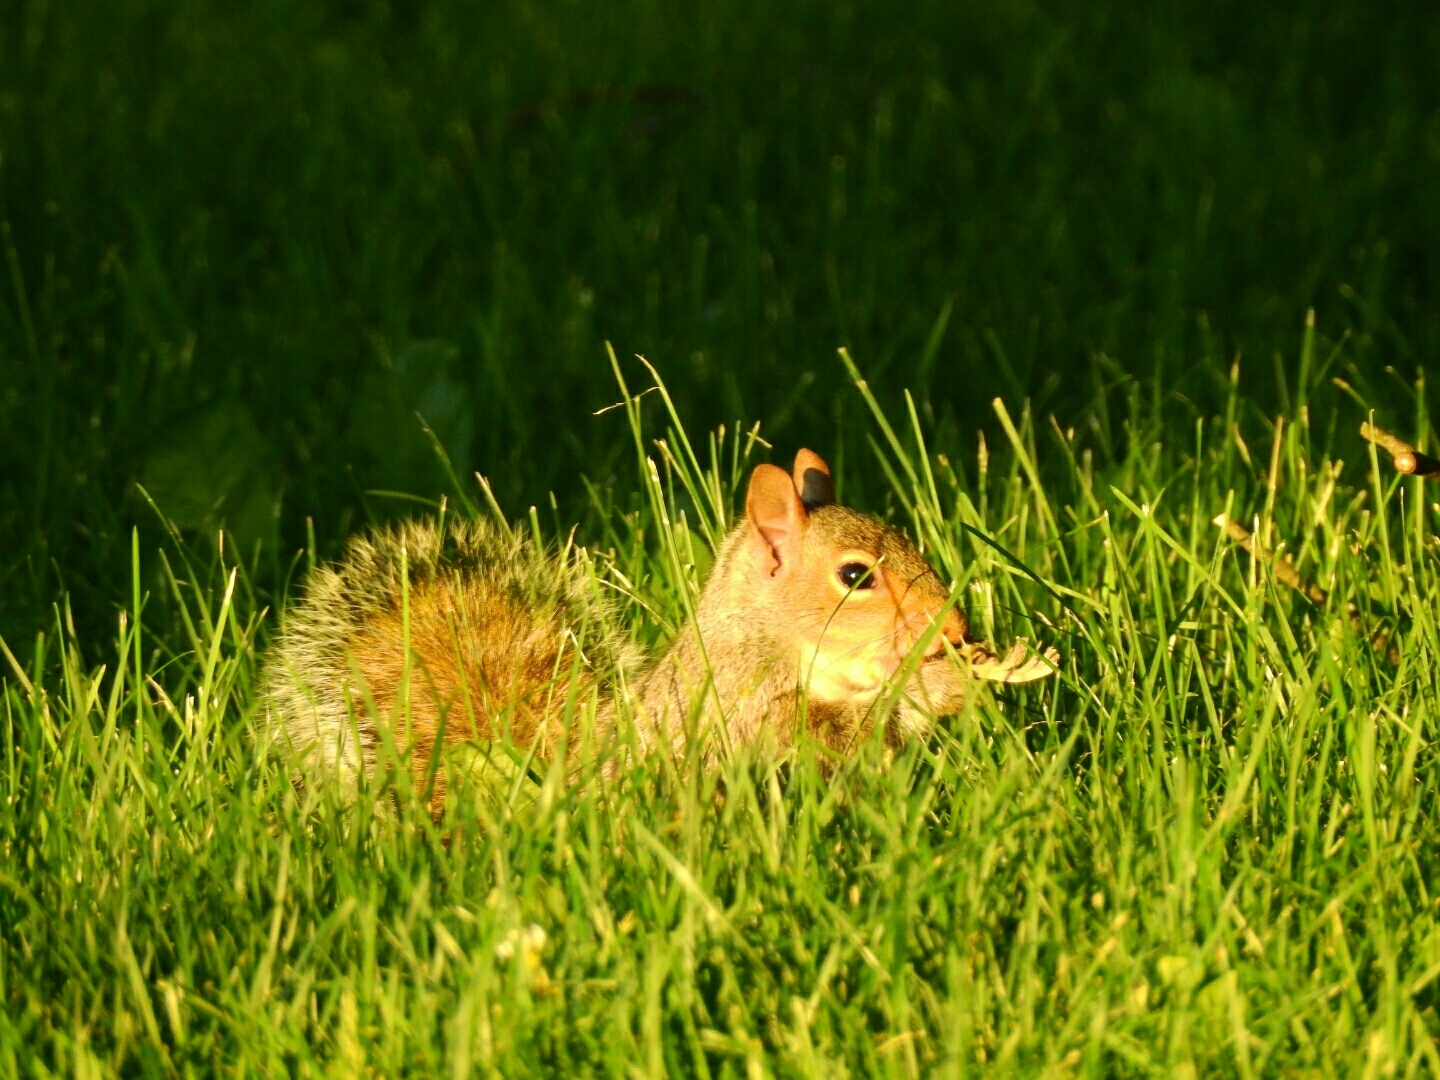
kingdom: Animalia
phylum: Chordata
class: Mammalia
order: Rodentia
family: Sciuridae
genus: Sciurus
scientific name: Sciurus carolinensis
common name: Eastern gray squirrel
